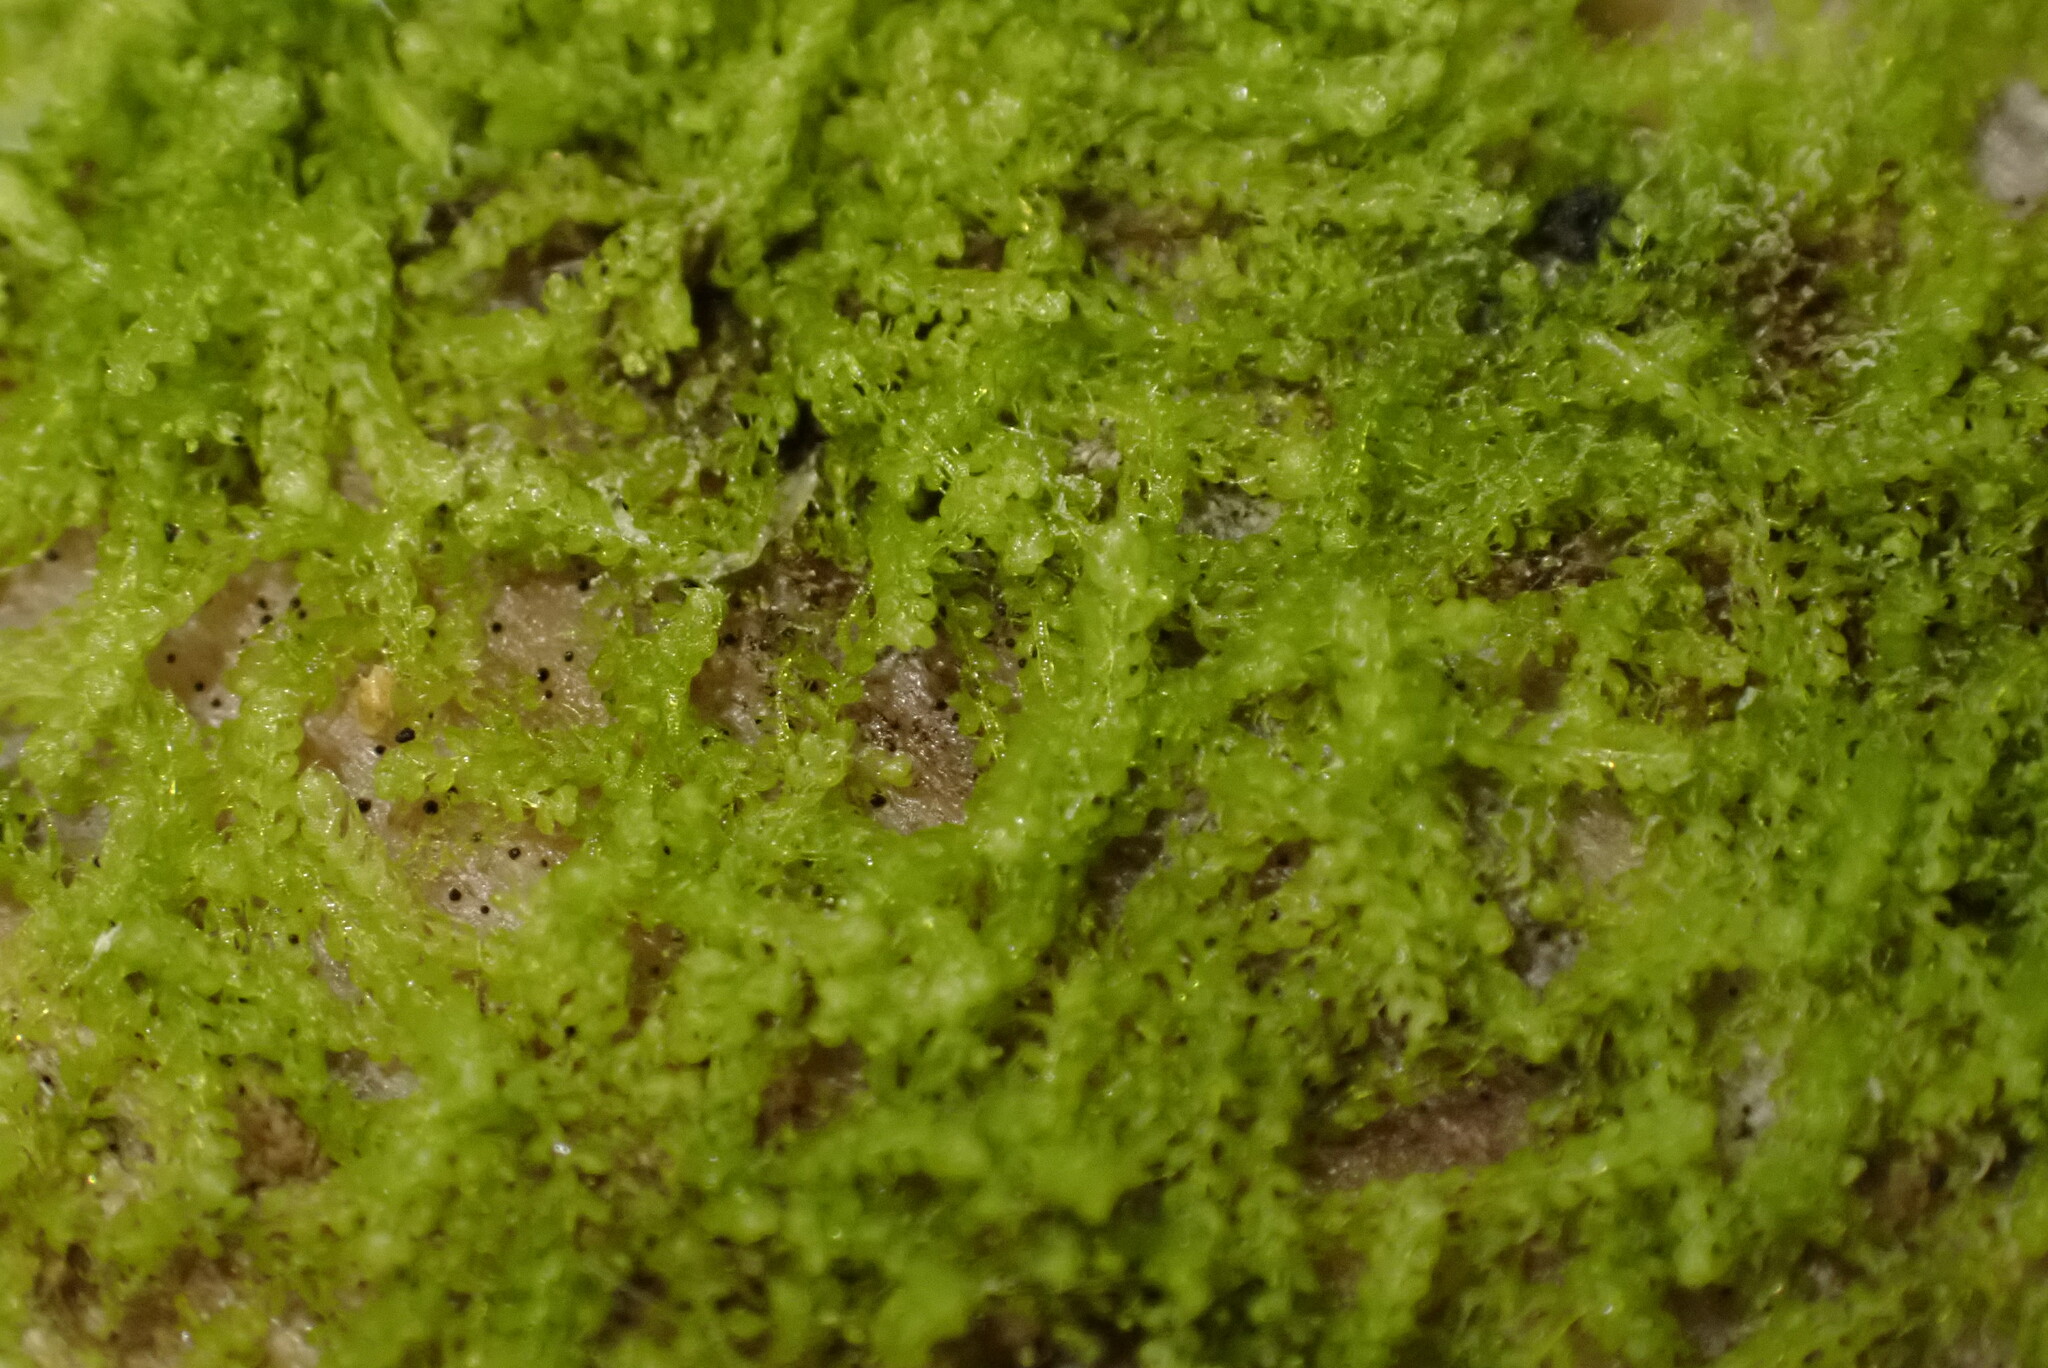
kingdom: Plantae
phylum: Marchantiophyta
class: Jungermanniopsida
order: Jungermanniales
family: Cephaloziaceae
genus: Nowellia
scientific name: Nowellia curvifolia
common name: Wood rustwort
